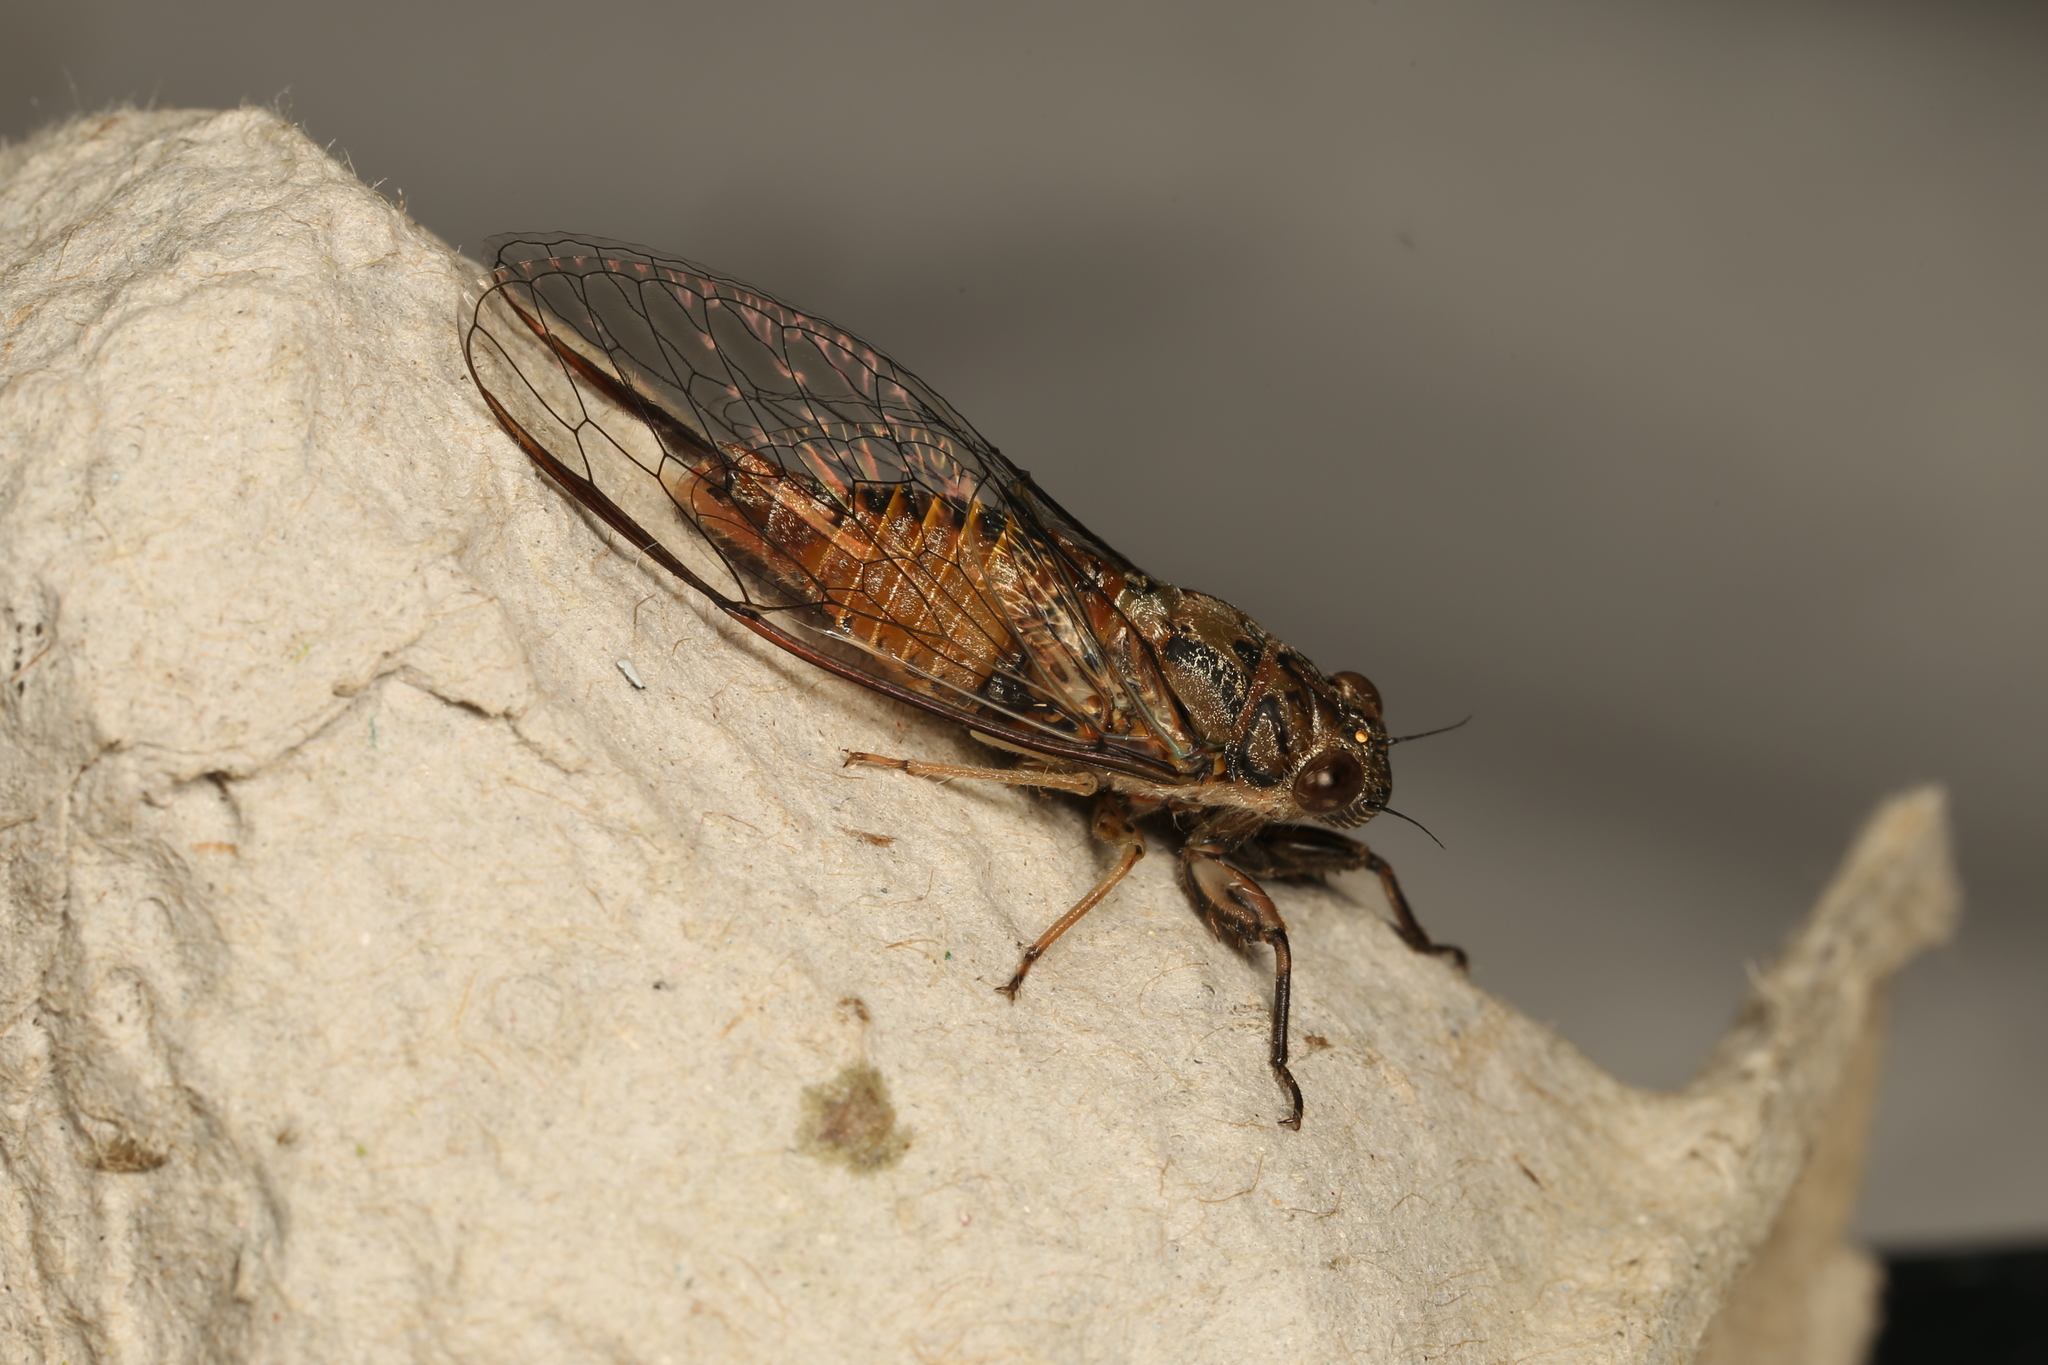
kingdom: Animalia
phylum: Arthropoda
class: Insecta
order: Hemiptera
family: Cicadidae
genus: Yoyetta
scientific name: Yoyetta celis
